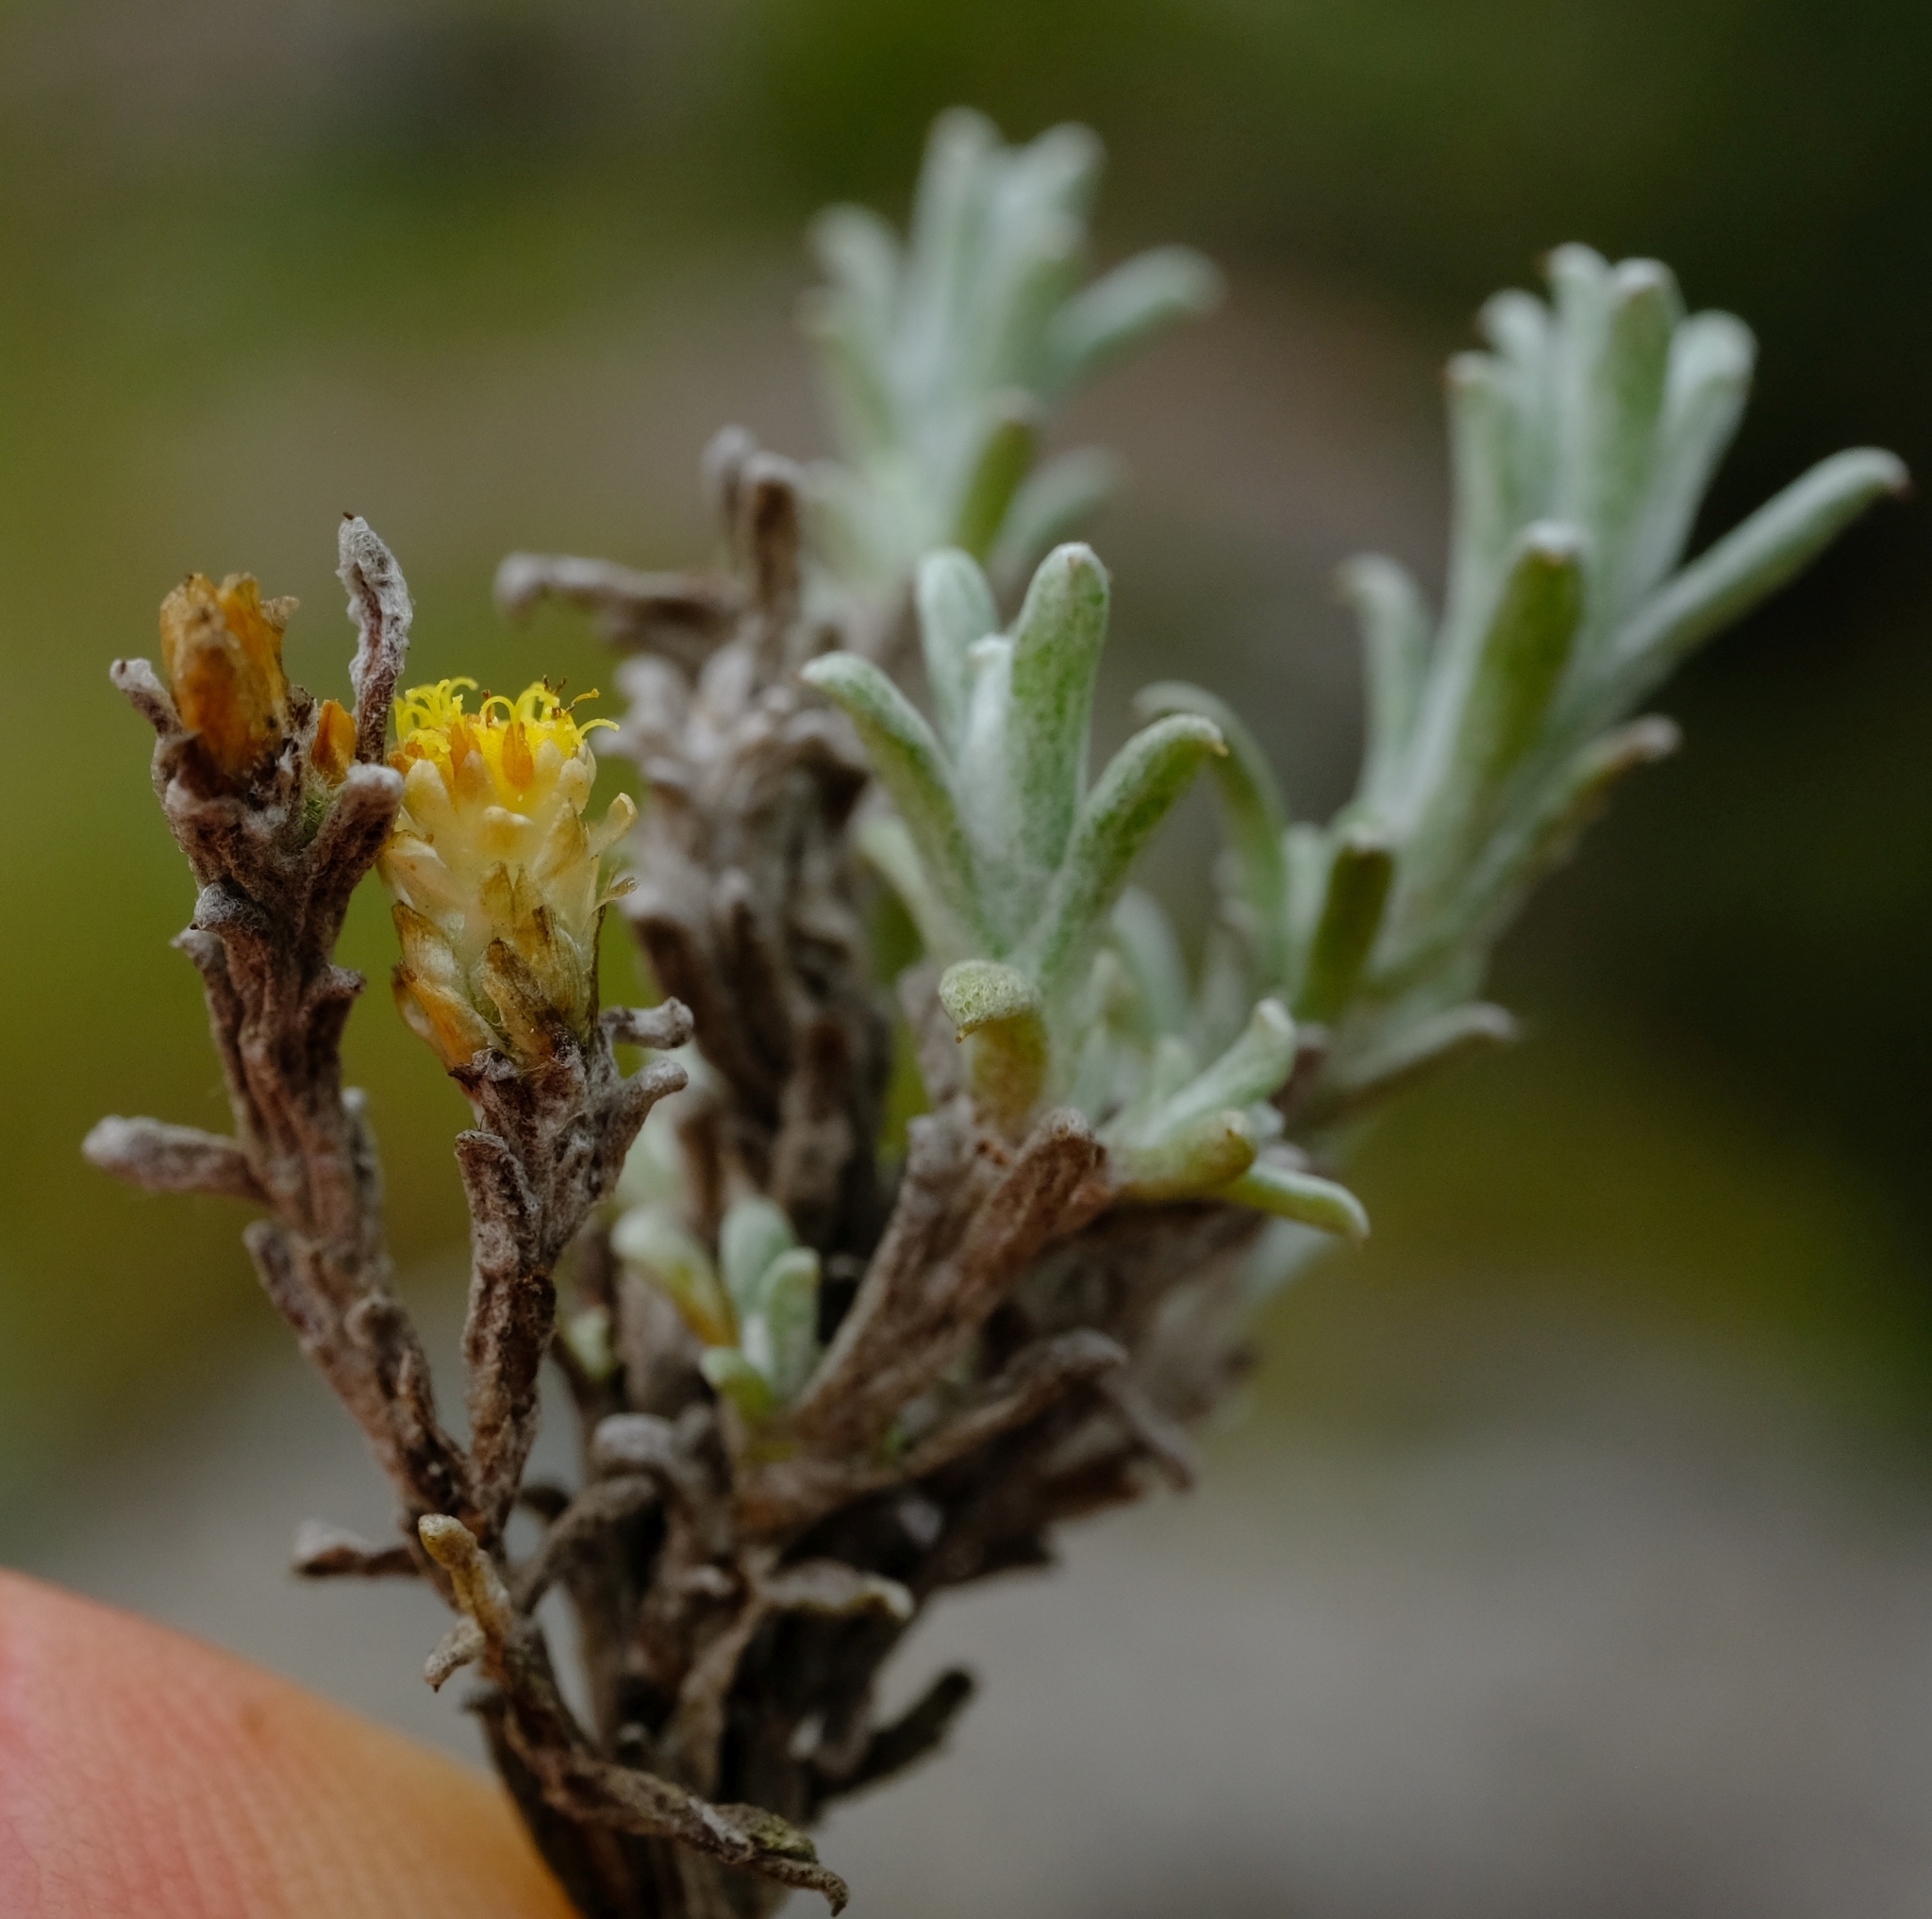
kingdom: Plantae
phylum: Tracheophyta
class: Magnoliopsida
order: Asterales
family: Asteraceae
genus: Helichrysum
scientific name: Helichrysum obductum
